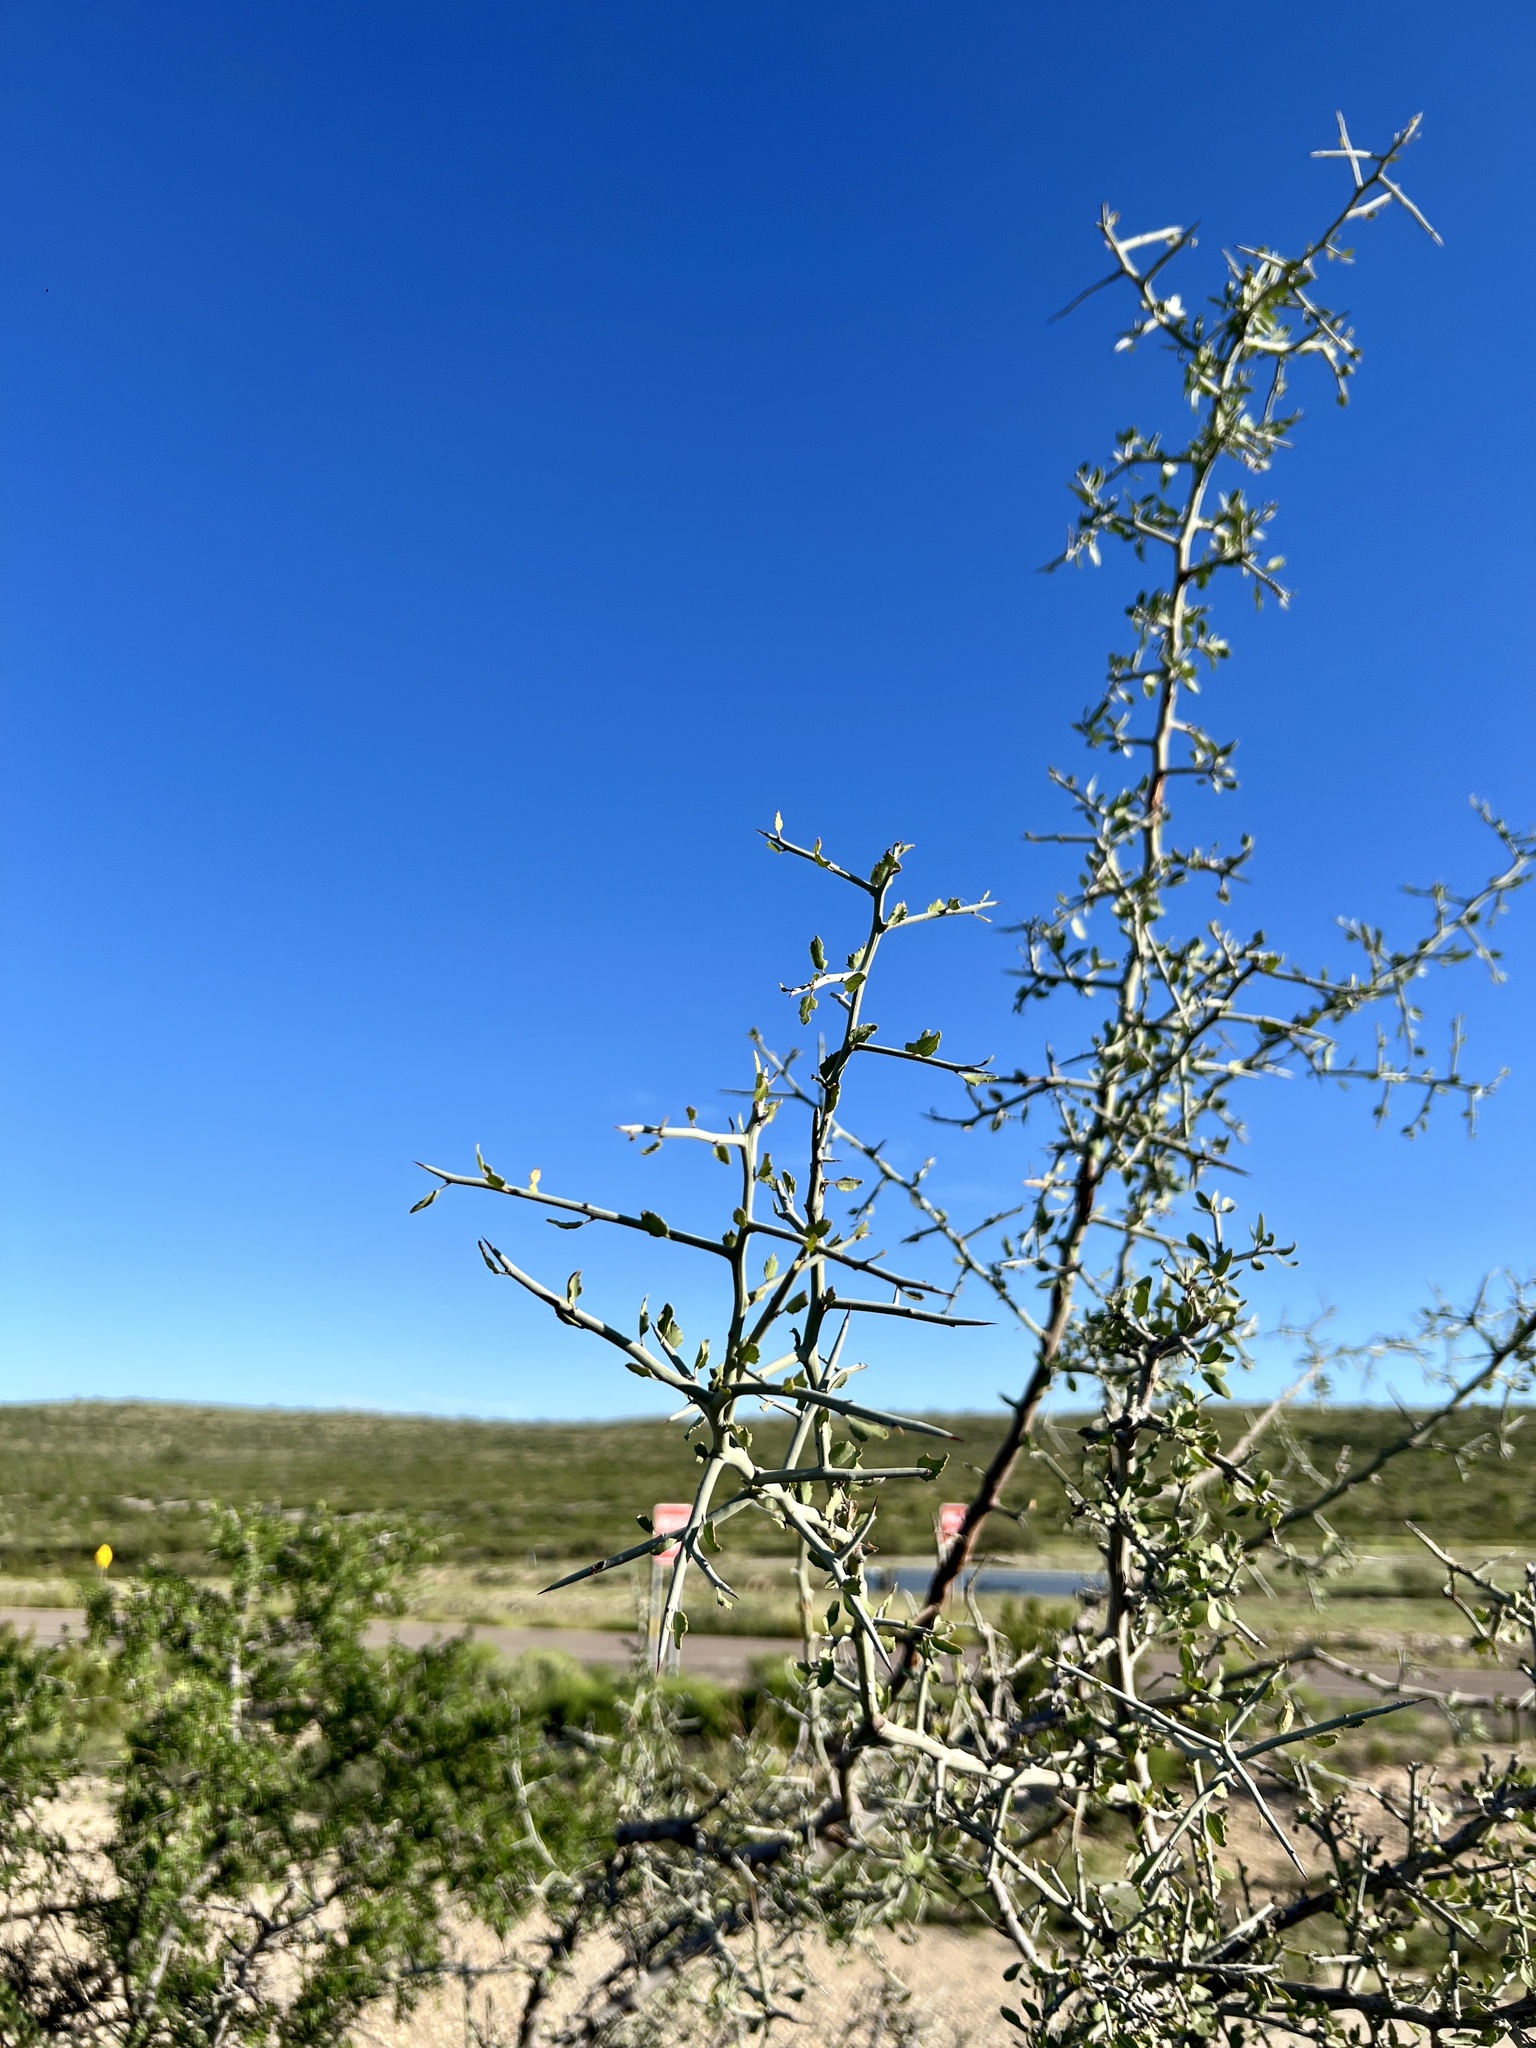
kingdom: Plantae
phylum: Tracheophyta
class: Magnoliopsida
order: Rosales
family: Rhamnaceae
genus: Sarcomphalus
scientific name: Sarcomphalus obtusifolius
